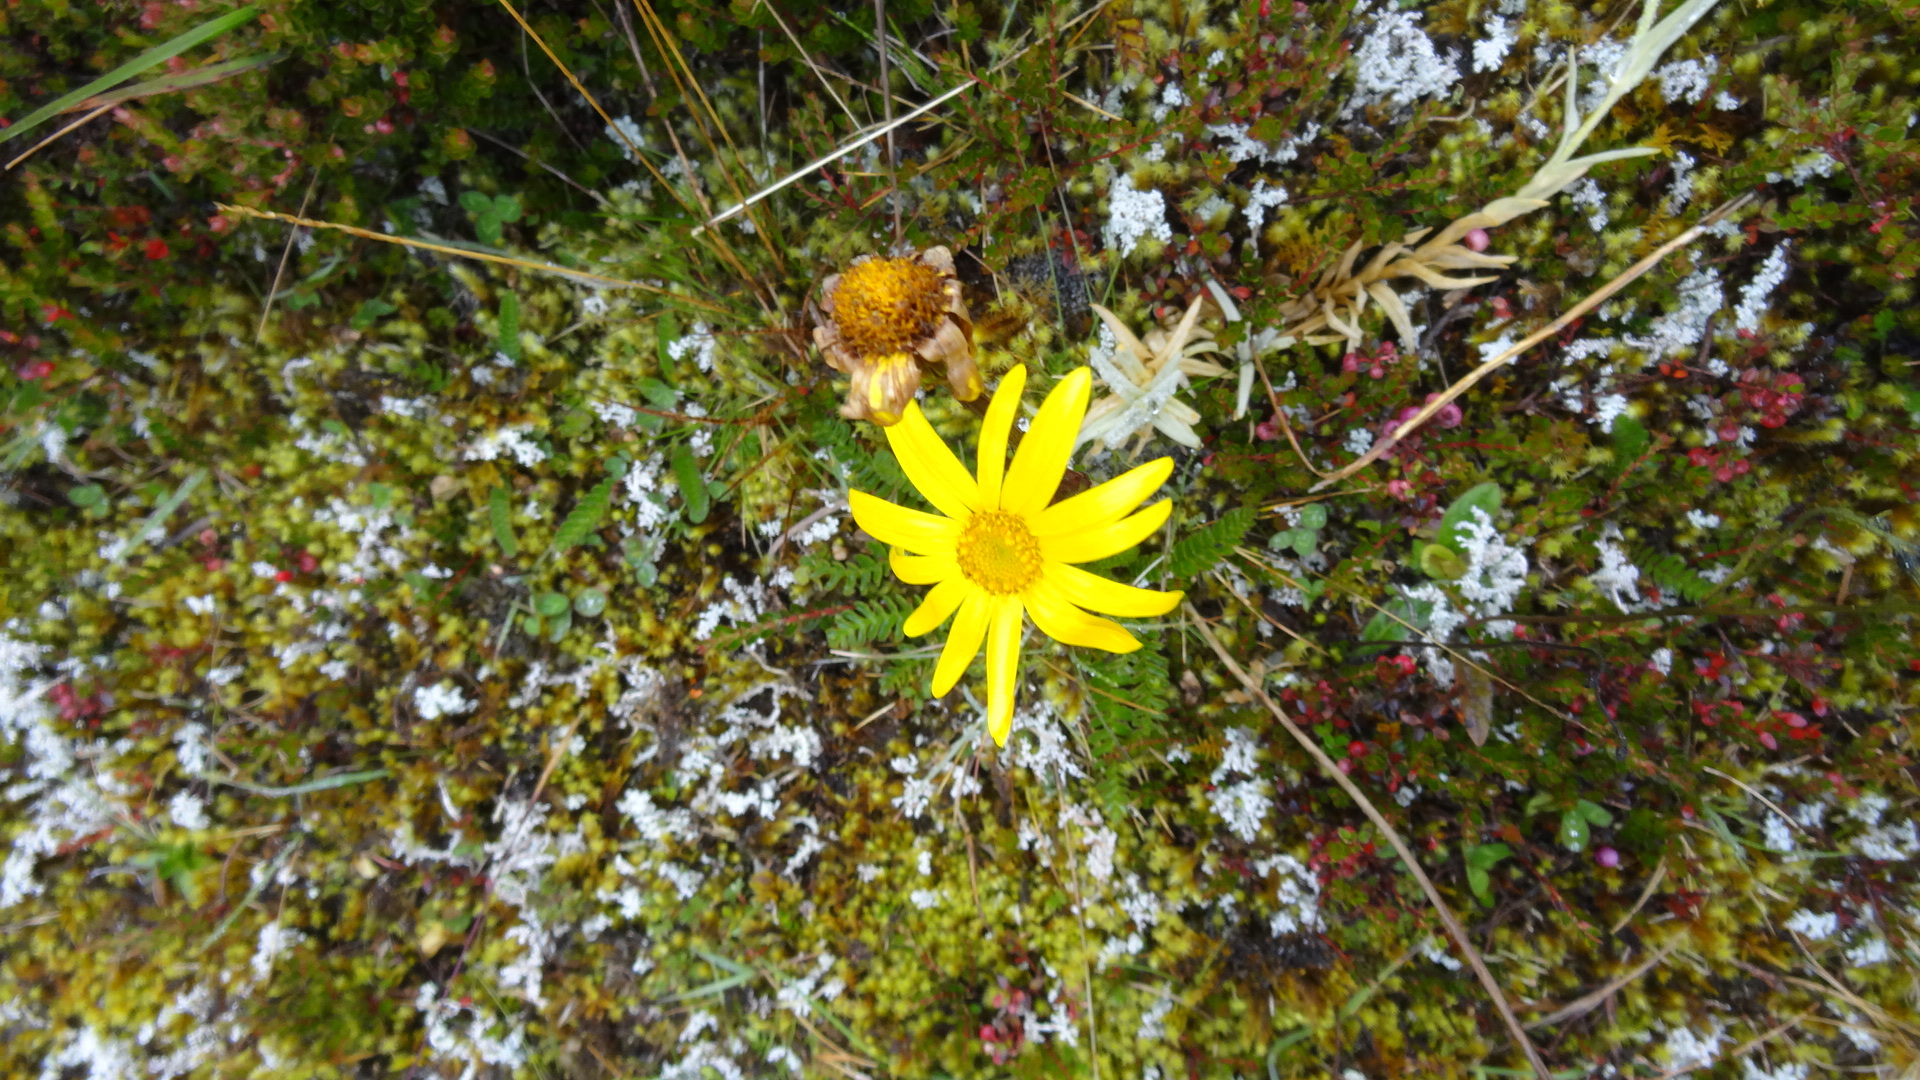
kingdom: Plantae
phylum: Tracheophyta
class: Magnoliopsida
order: Asterales
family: Asteraceae
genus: Dorobaea
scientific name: Dorobaea pimpinellifolia
